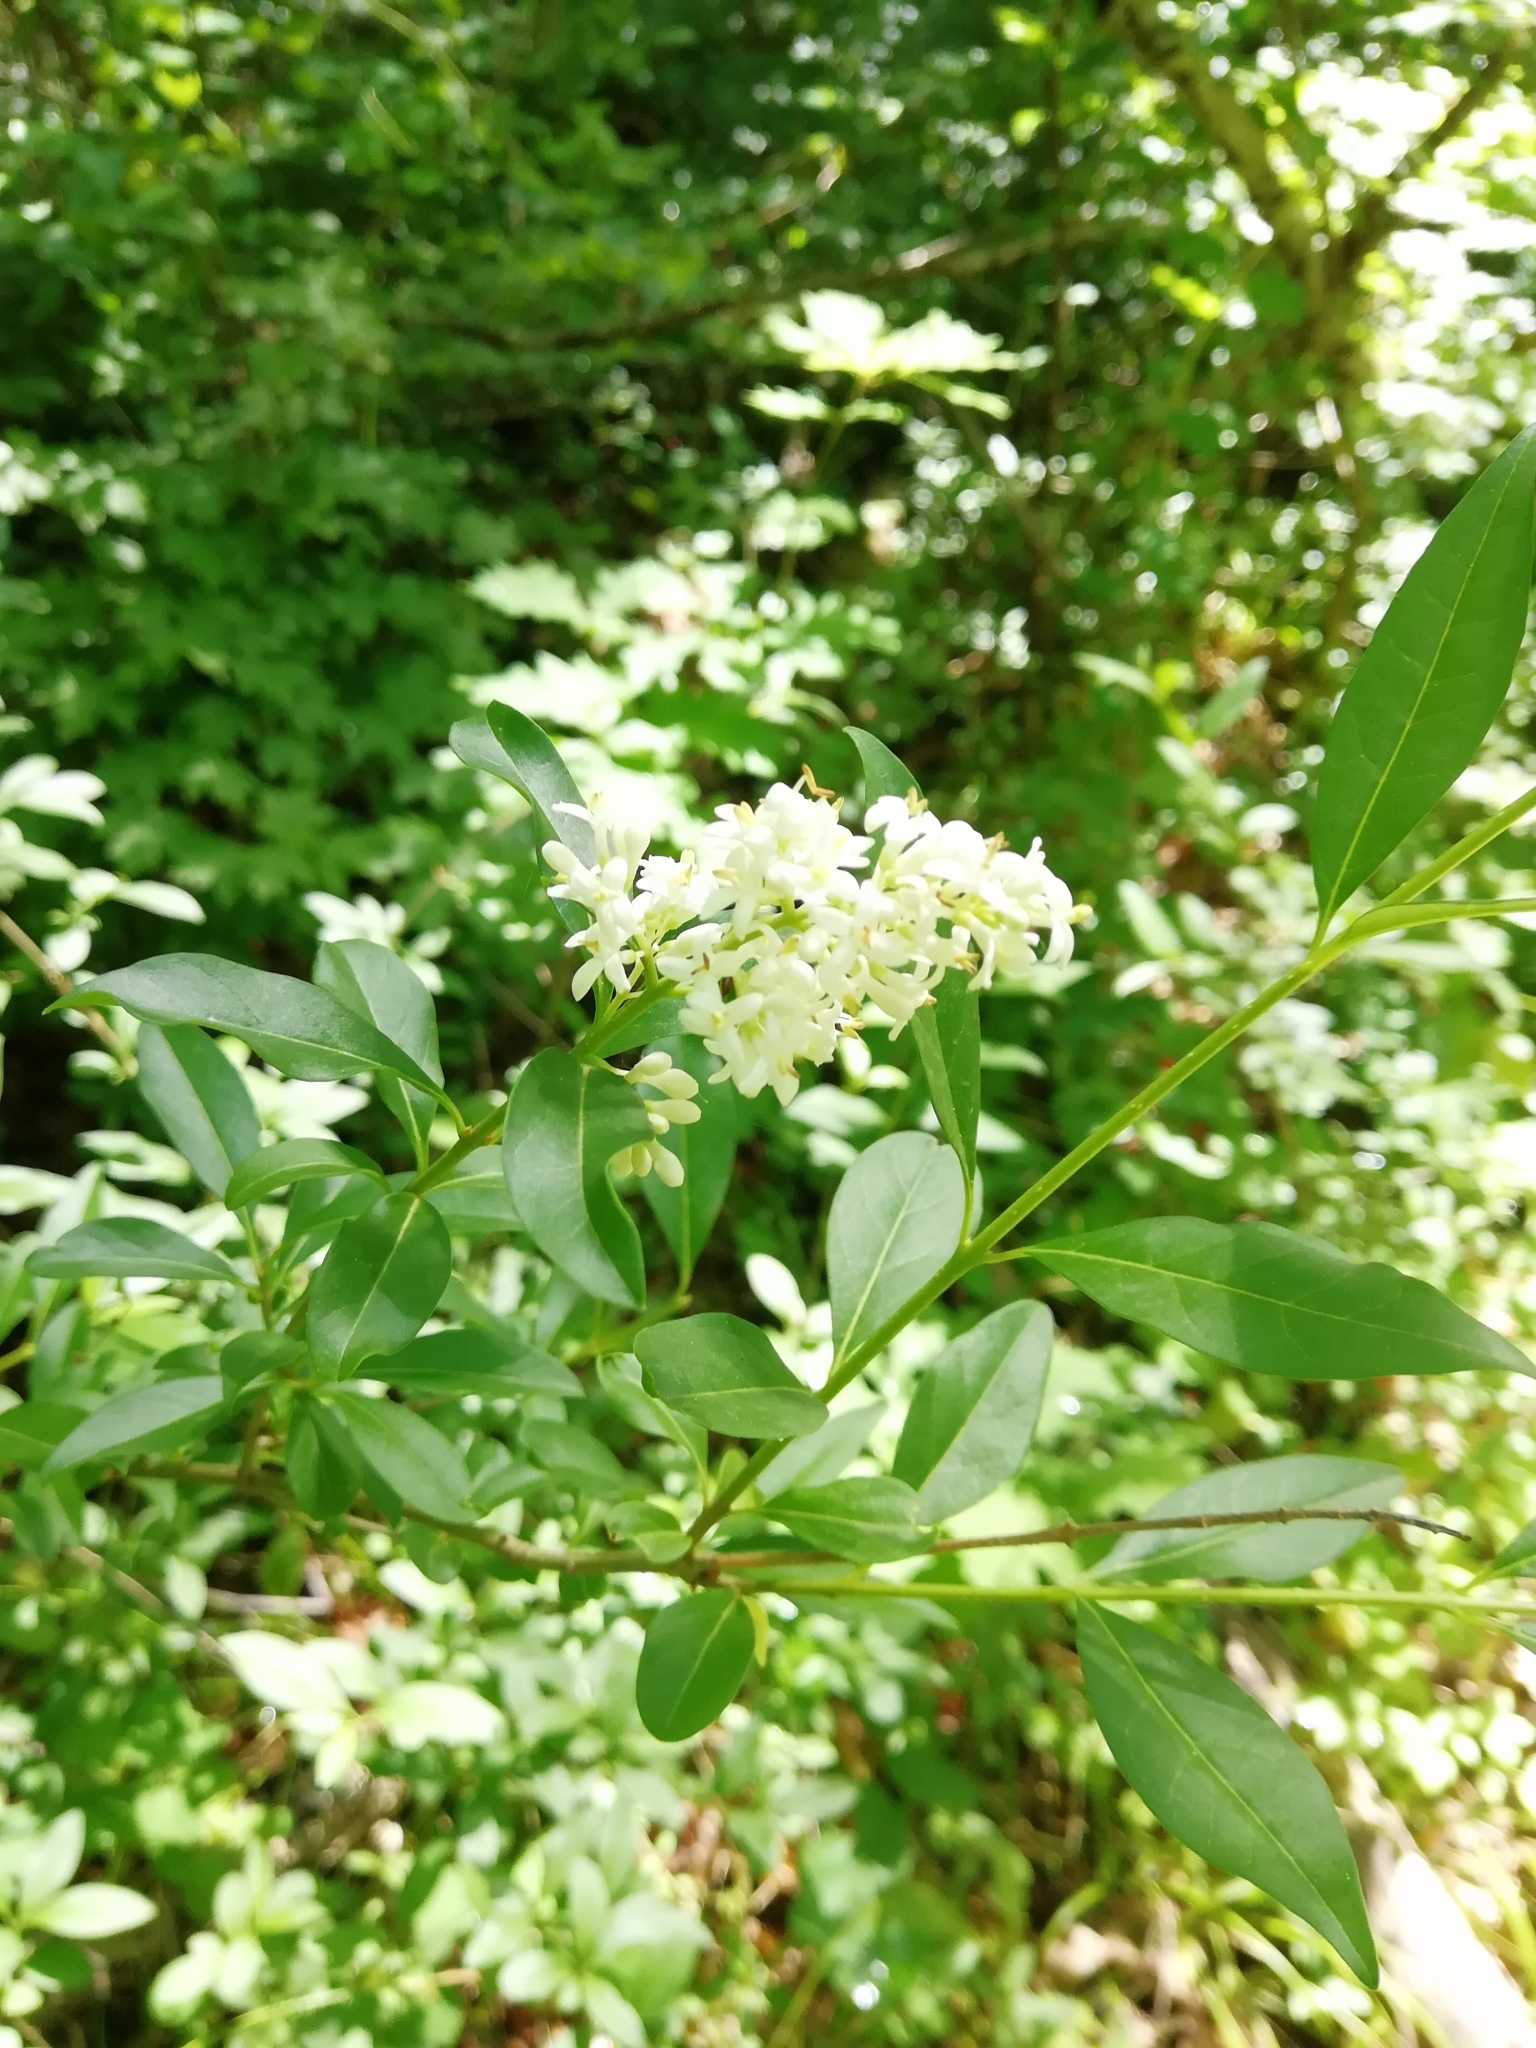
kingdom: Plantae
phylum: Tracheophyta
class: Magnoliopsida
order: Lamiales
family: Oleaceae
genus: Ligustrum
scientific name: Ligustrum vulgare
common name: Wild privet
